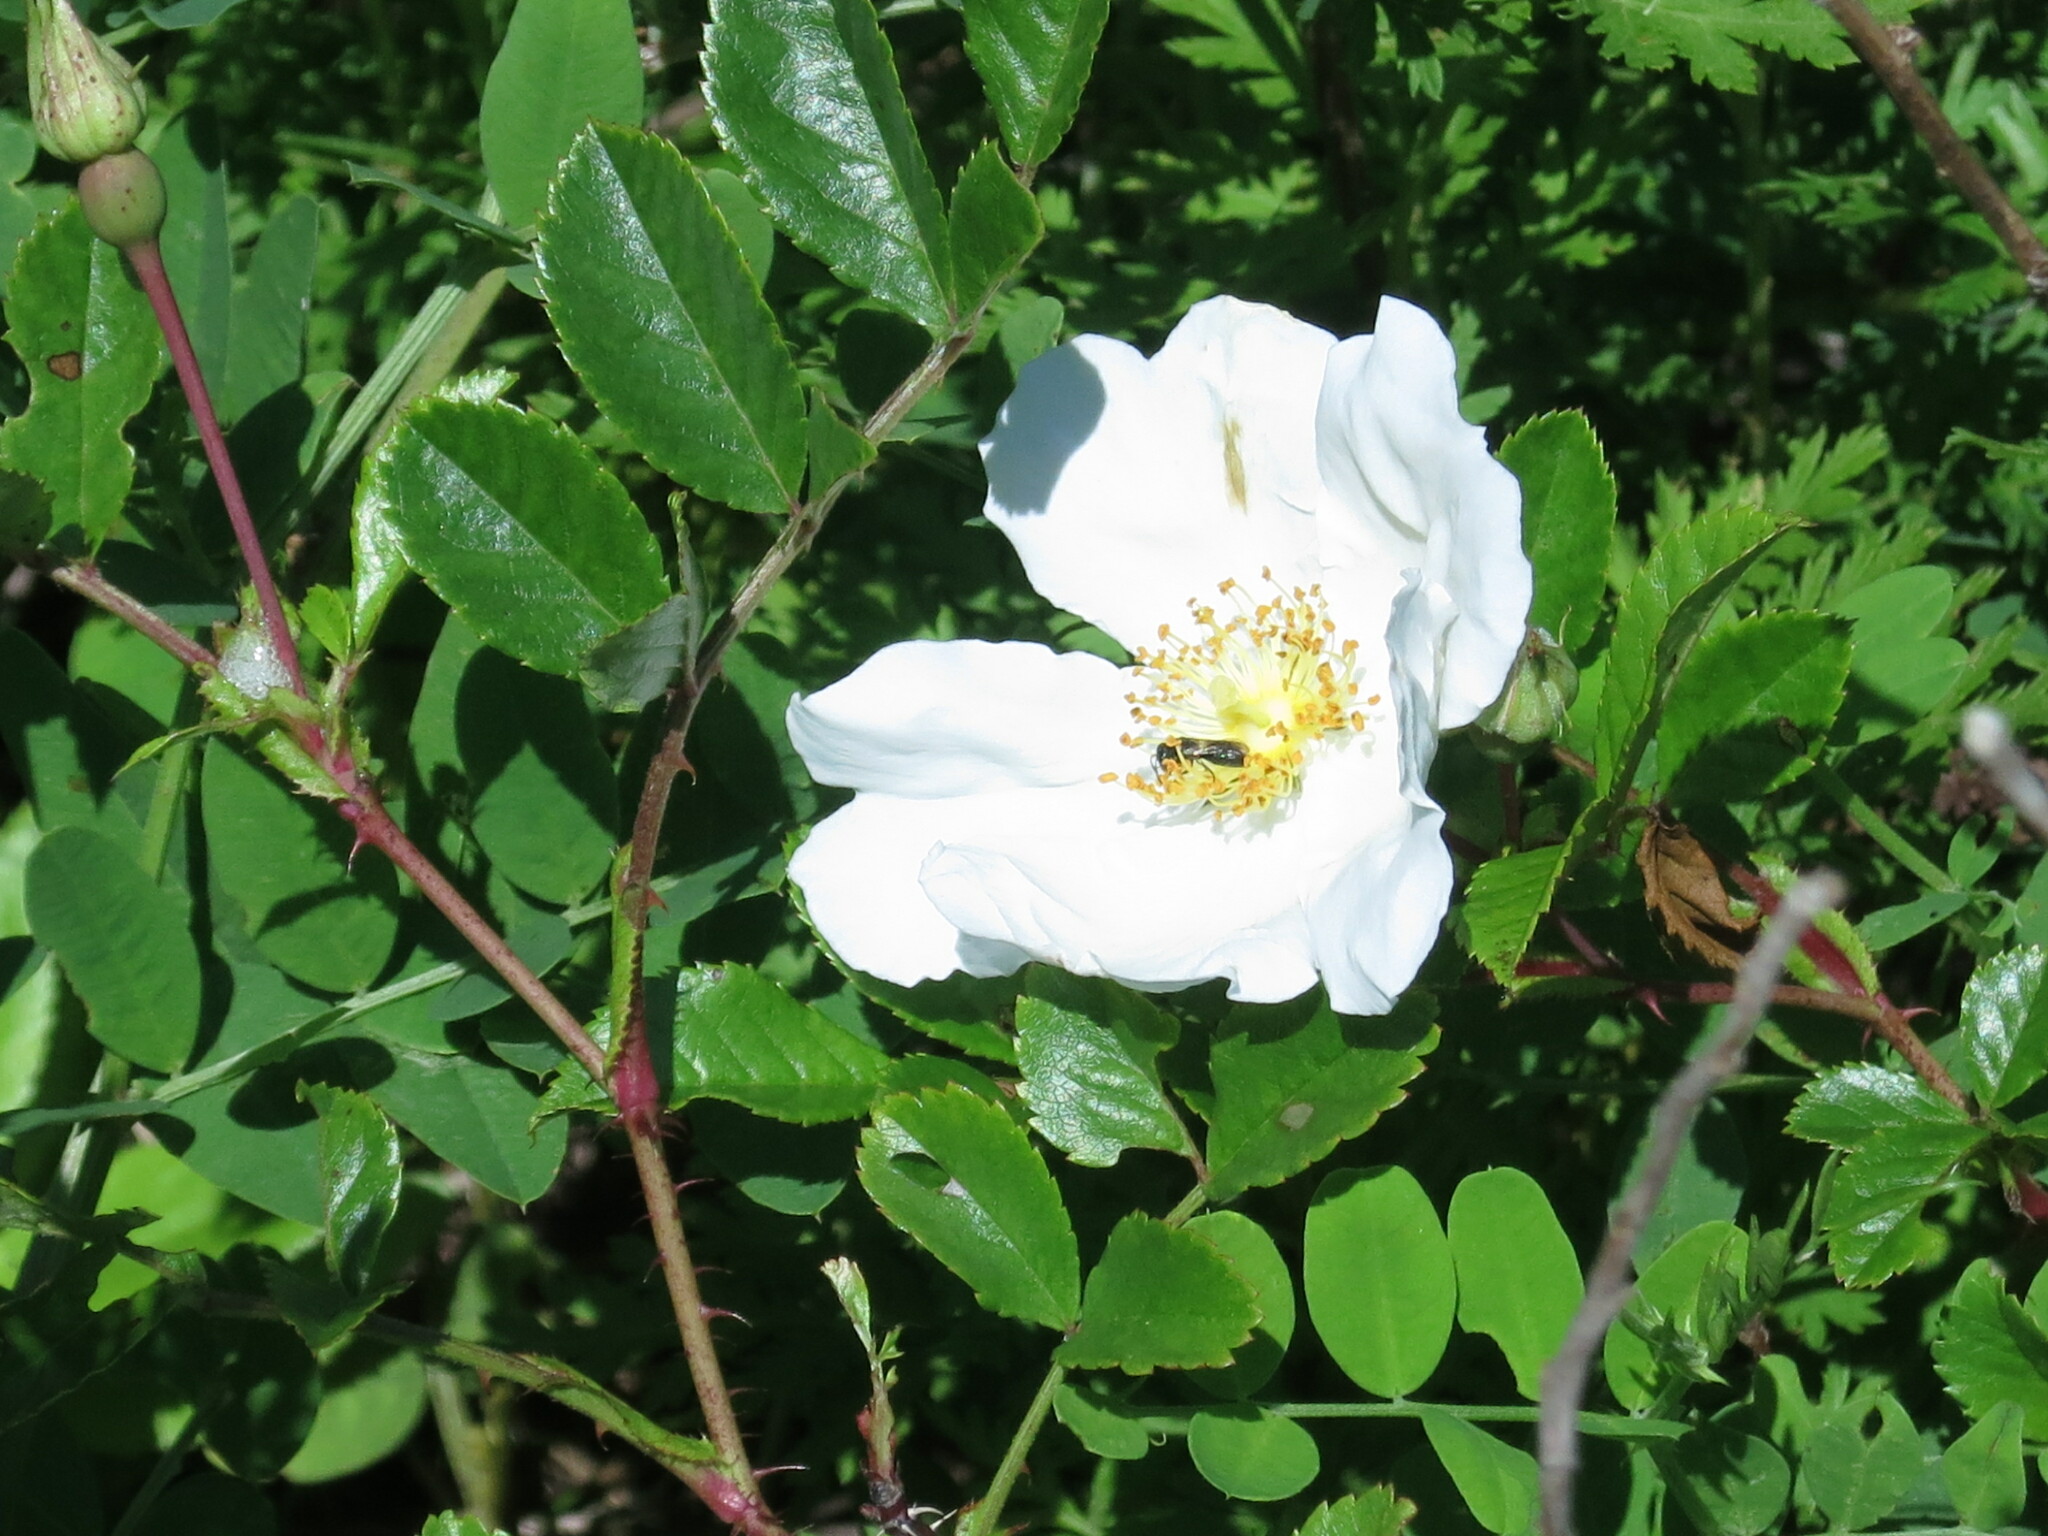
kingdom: Plantae
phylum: Tracheophyta
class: Magnoliopsida
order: Rosales
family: Rosaceae
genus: Rosa
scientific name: Rosa maximowicziana
